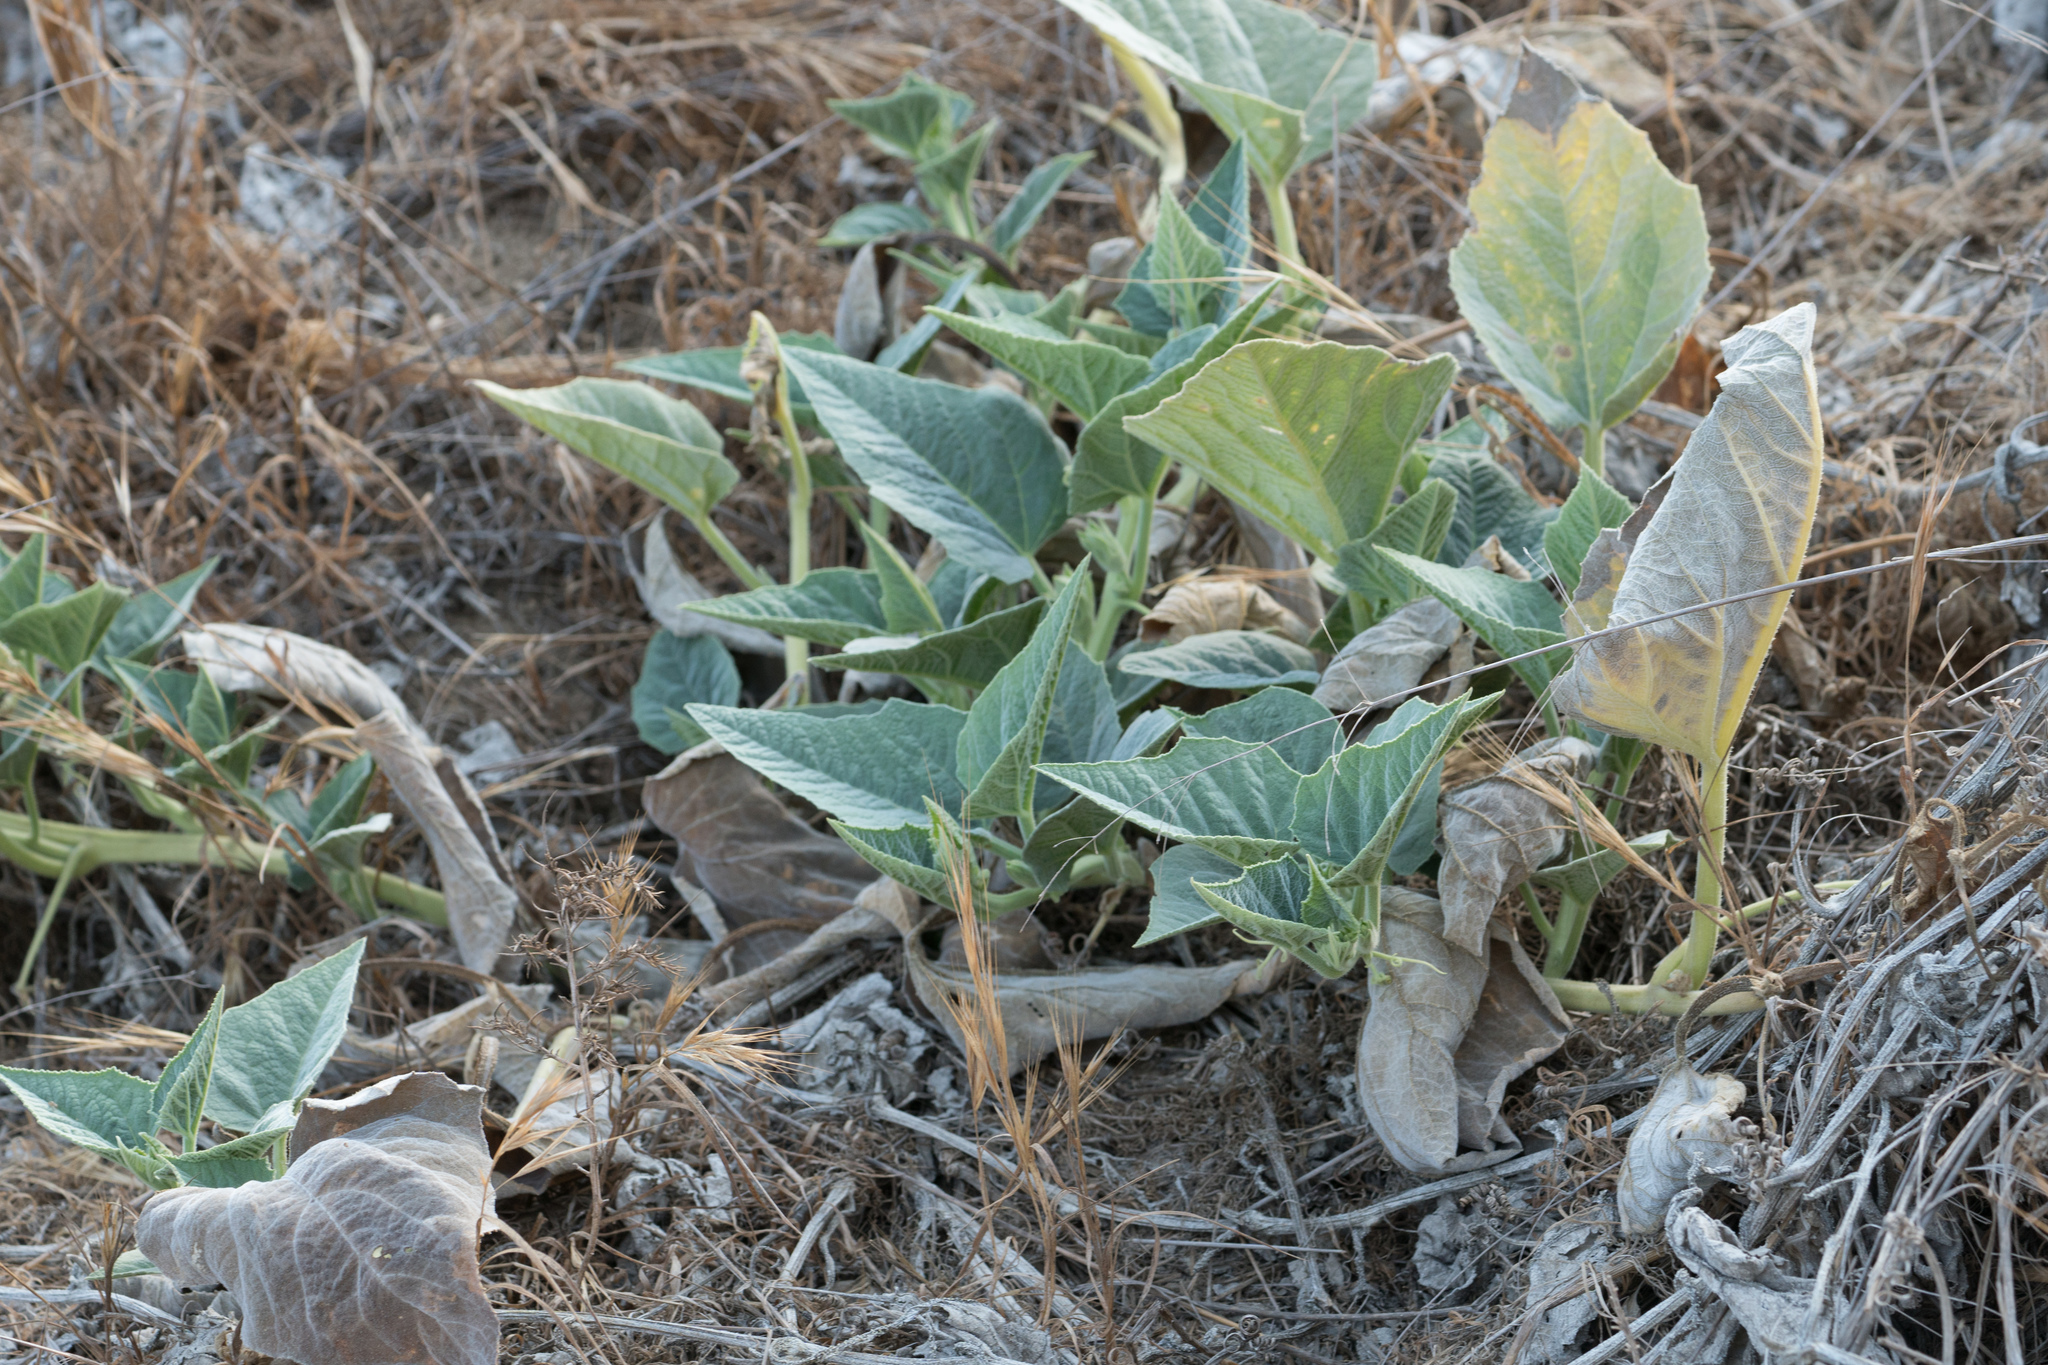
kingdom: Plantae
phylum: Tracheophyta
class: Magnoliopsida
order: Cucurbitales
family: Cucurbitaceae
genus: Cucurbita
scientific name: Cucurbita foetidissima
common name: Buffalo gourd
